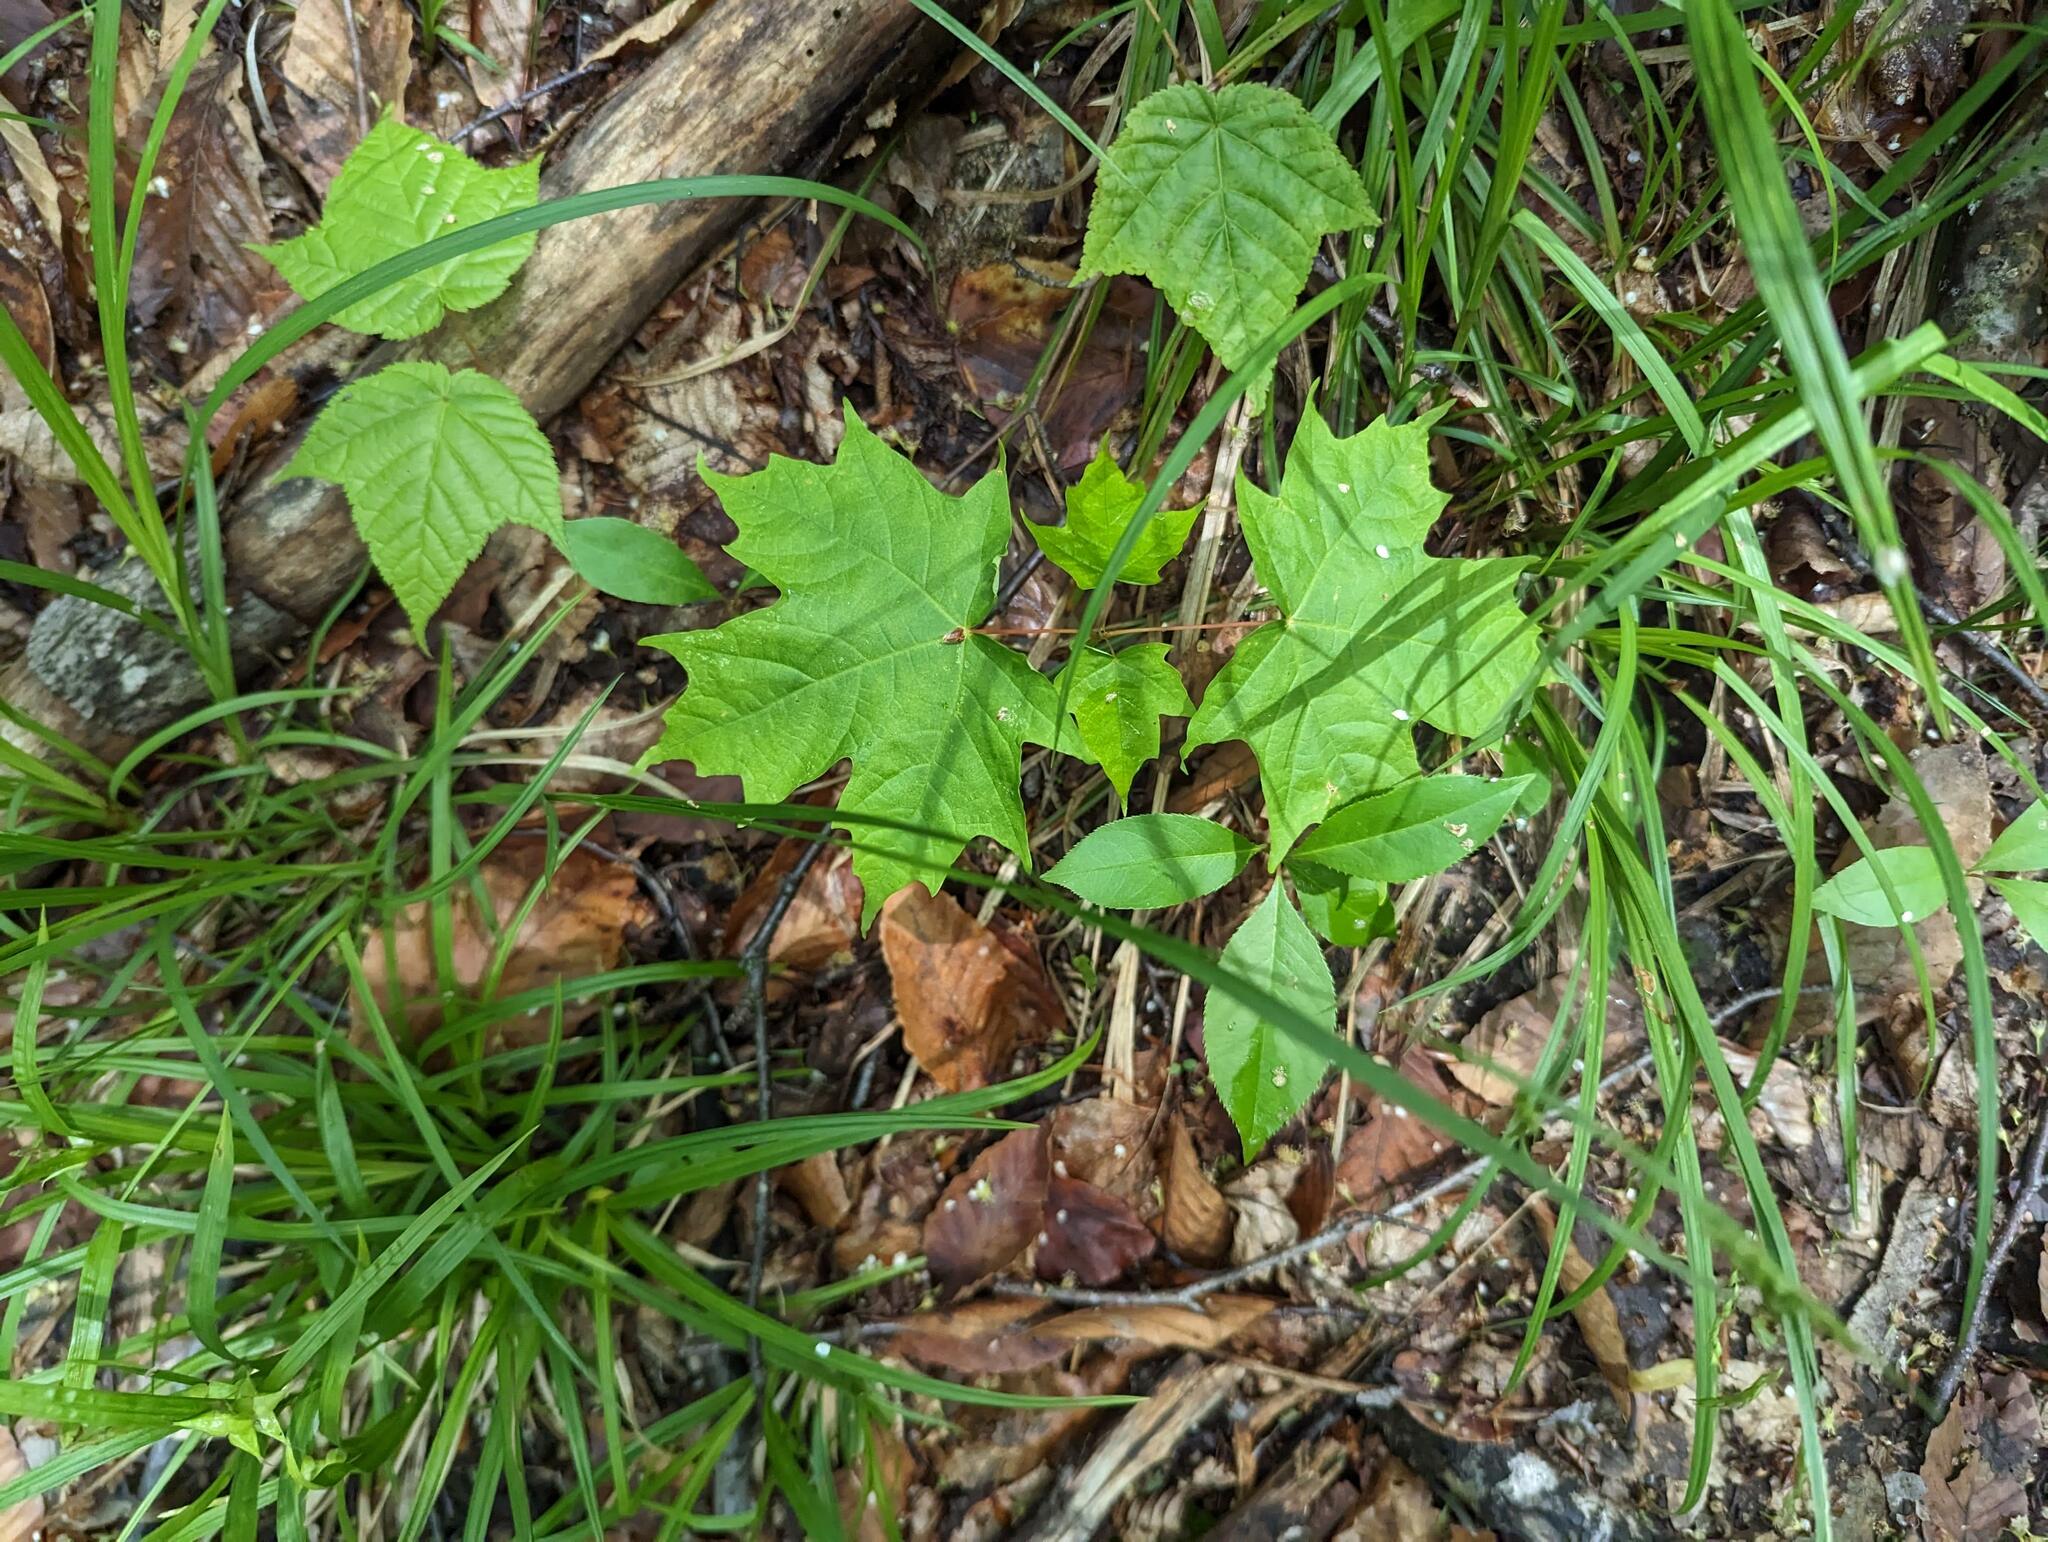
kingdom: Plantae
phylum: Tracheophyta
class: Magnoliopsida
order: Sapindales
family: Sapindaceae
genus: Acer
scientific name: Acer saccharum
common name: Sugar maple
